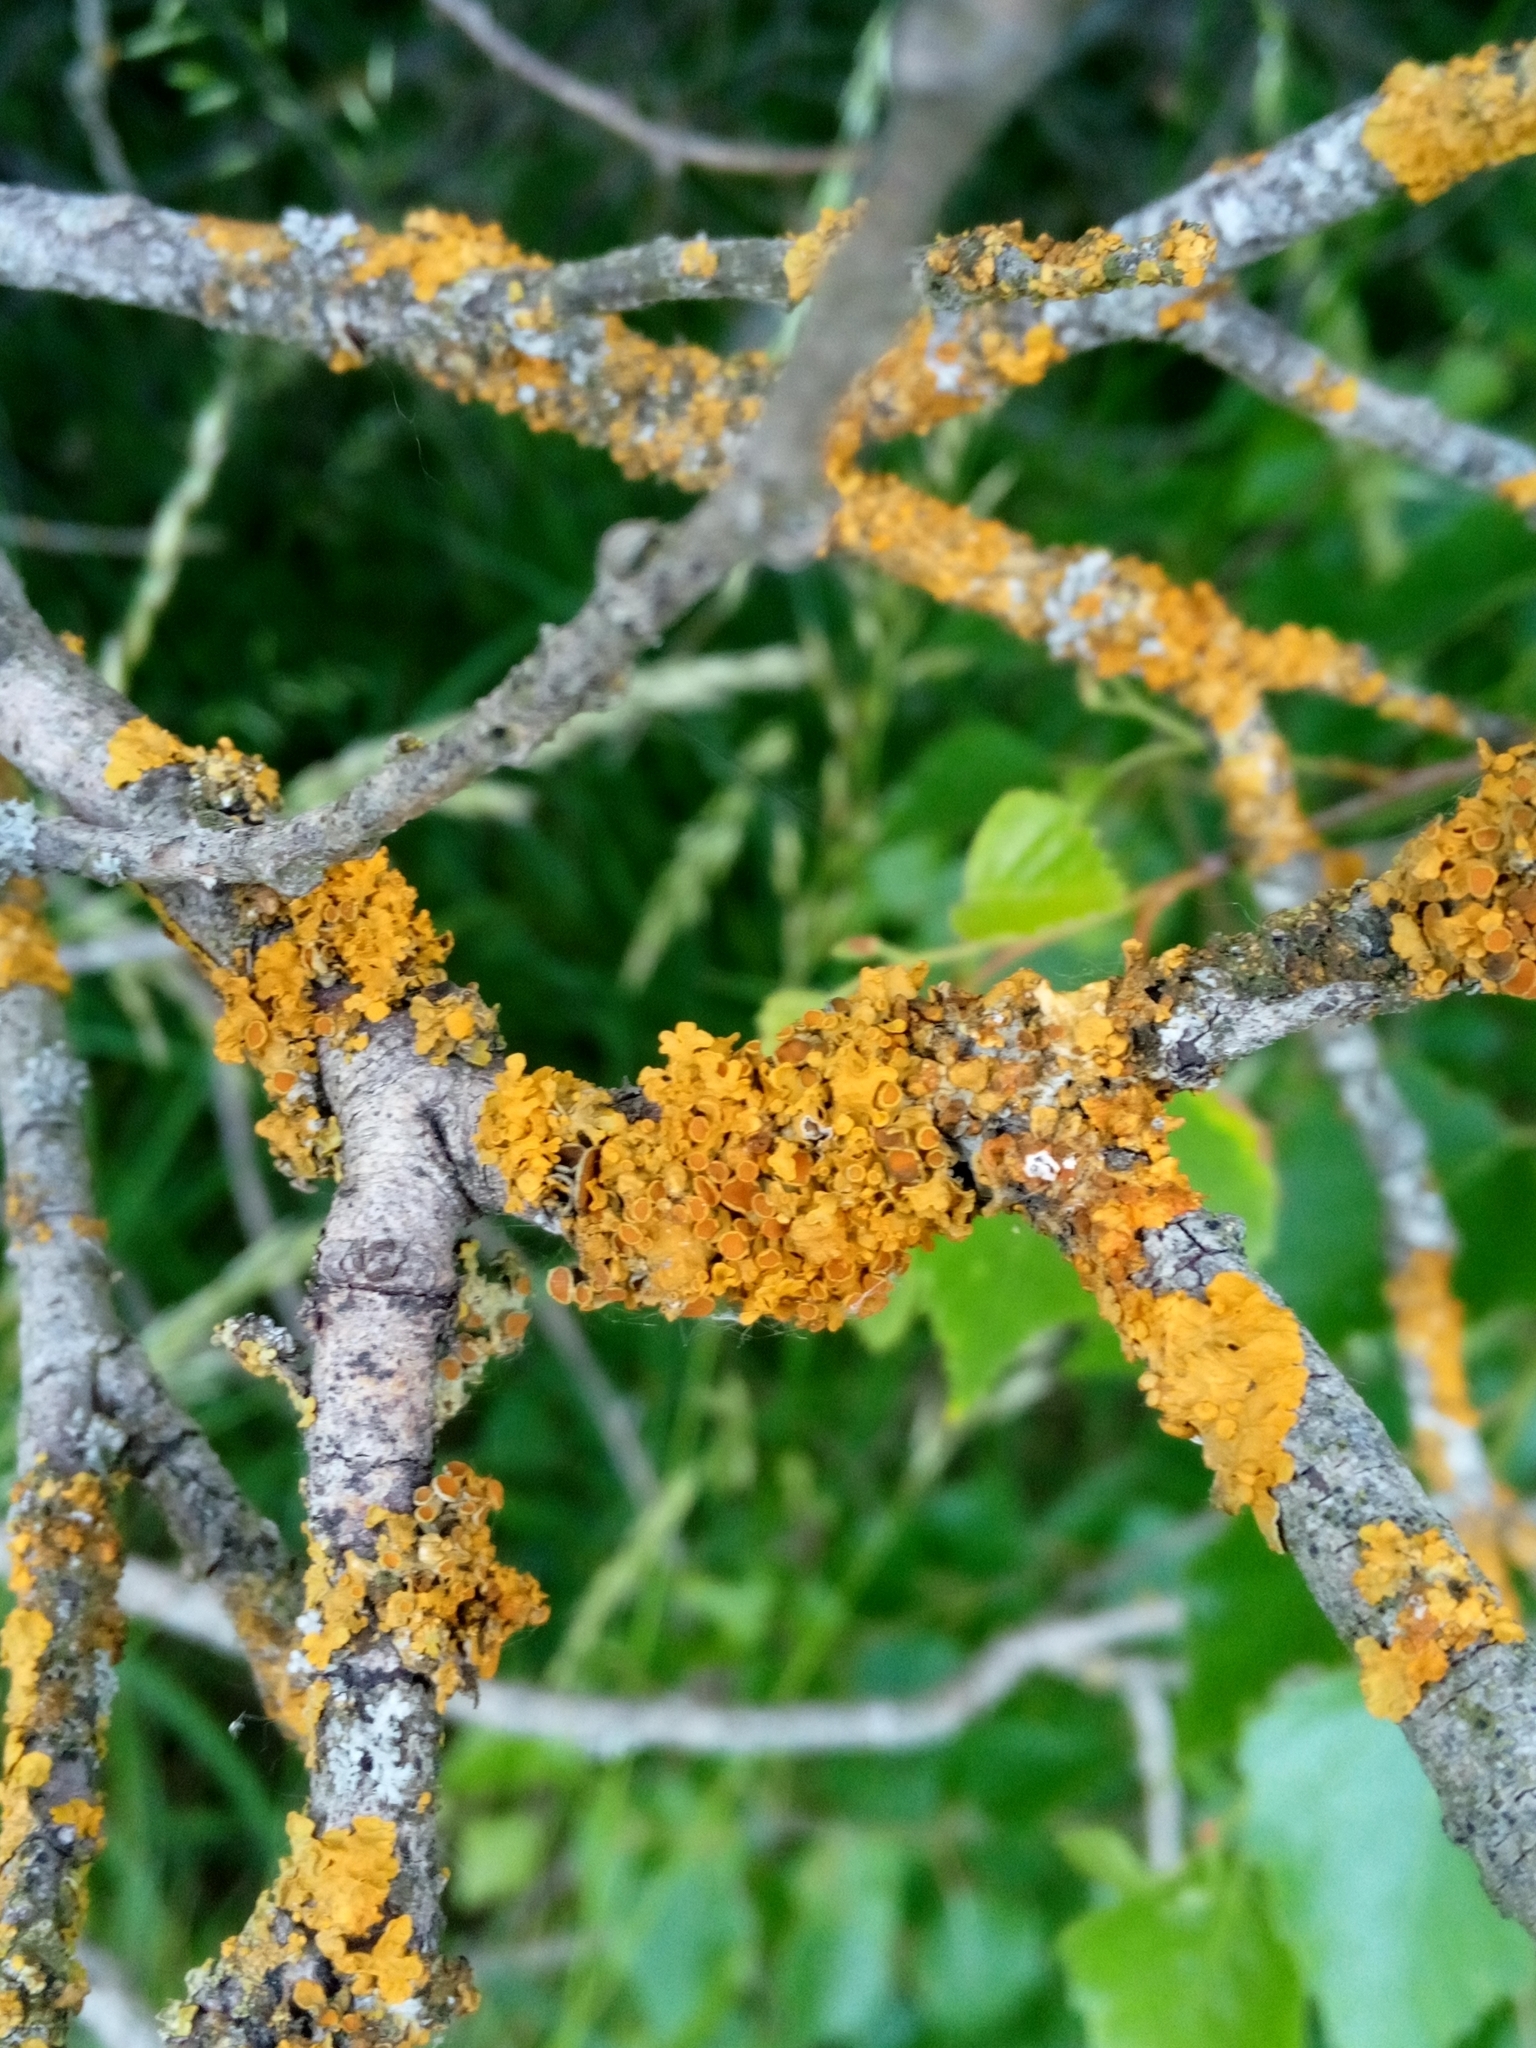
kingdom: Fungi
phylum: Ascomycota
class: Lecanoromycetes
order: Teloschistales
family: Teloschistaceae
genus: Xanthoria
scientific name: Xanthoria parietina
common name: Common orange lichen
